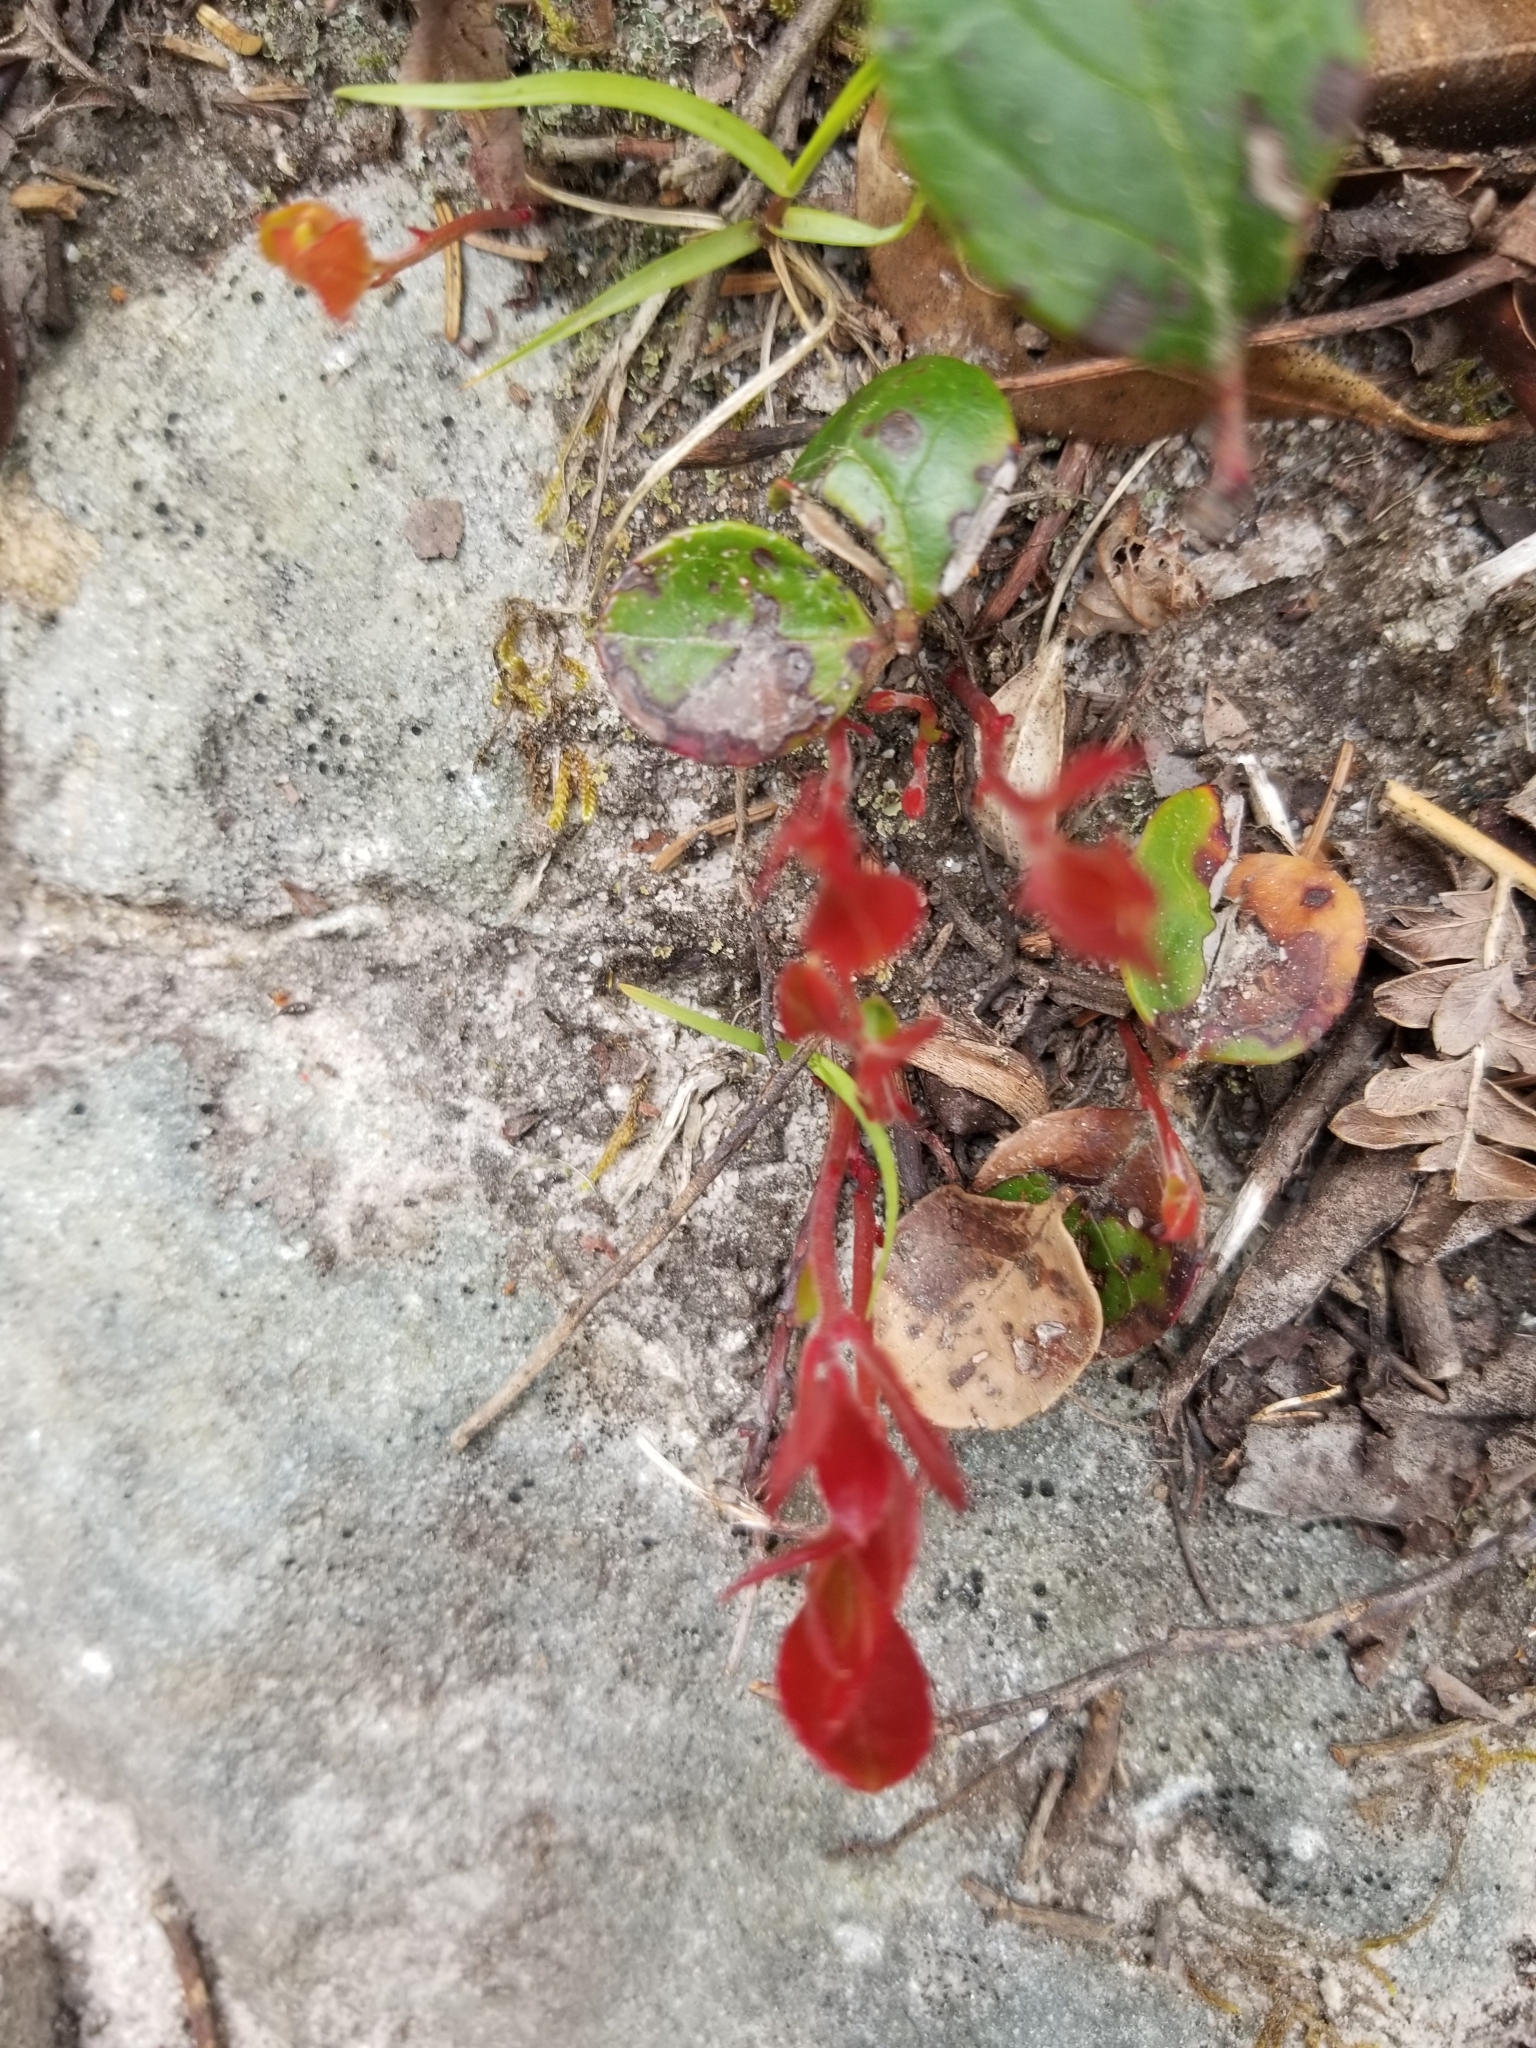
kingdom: Plantae
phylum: Tracheophyta
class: Magnoliopsida
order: Ericales
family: Ericaceae
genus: Gaultheria
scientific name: Gaultheria procumbens
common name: Checkerberry
